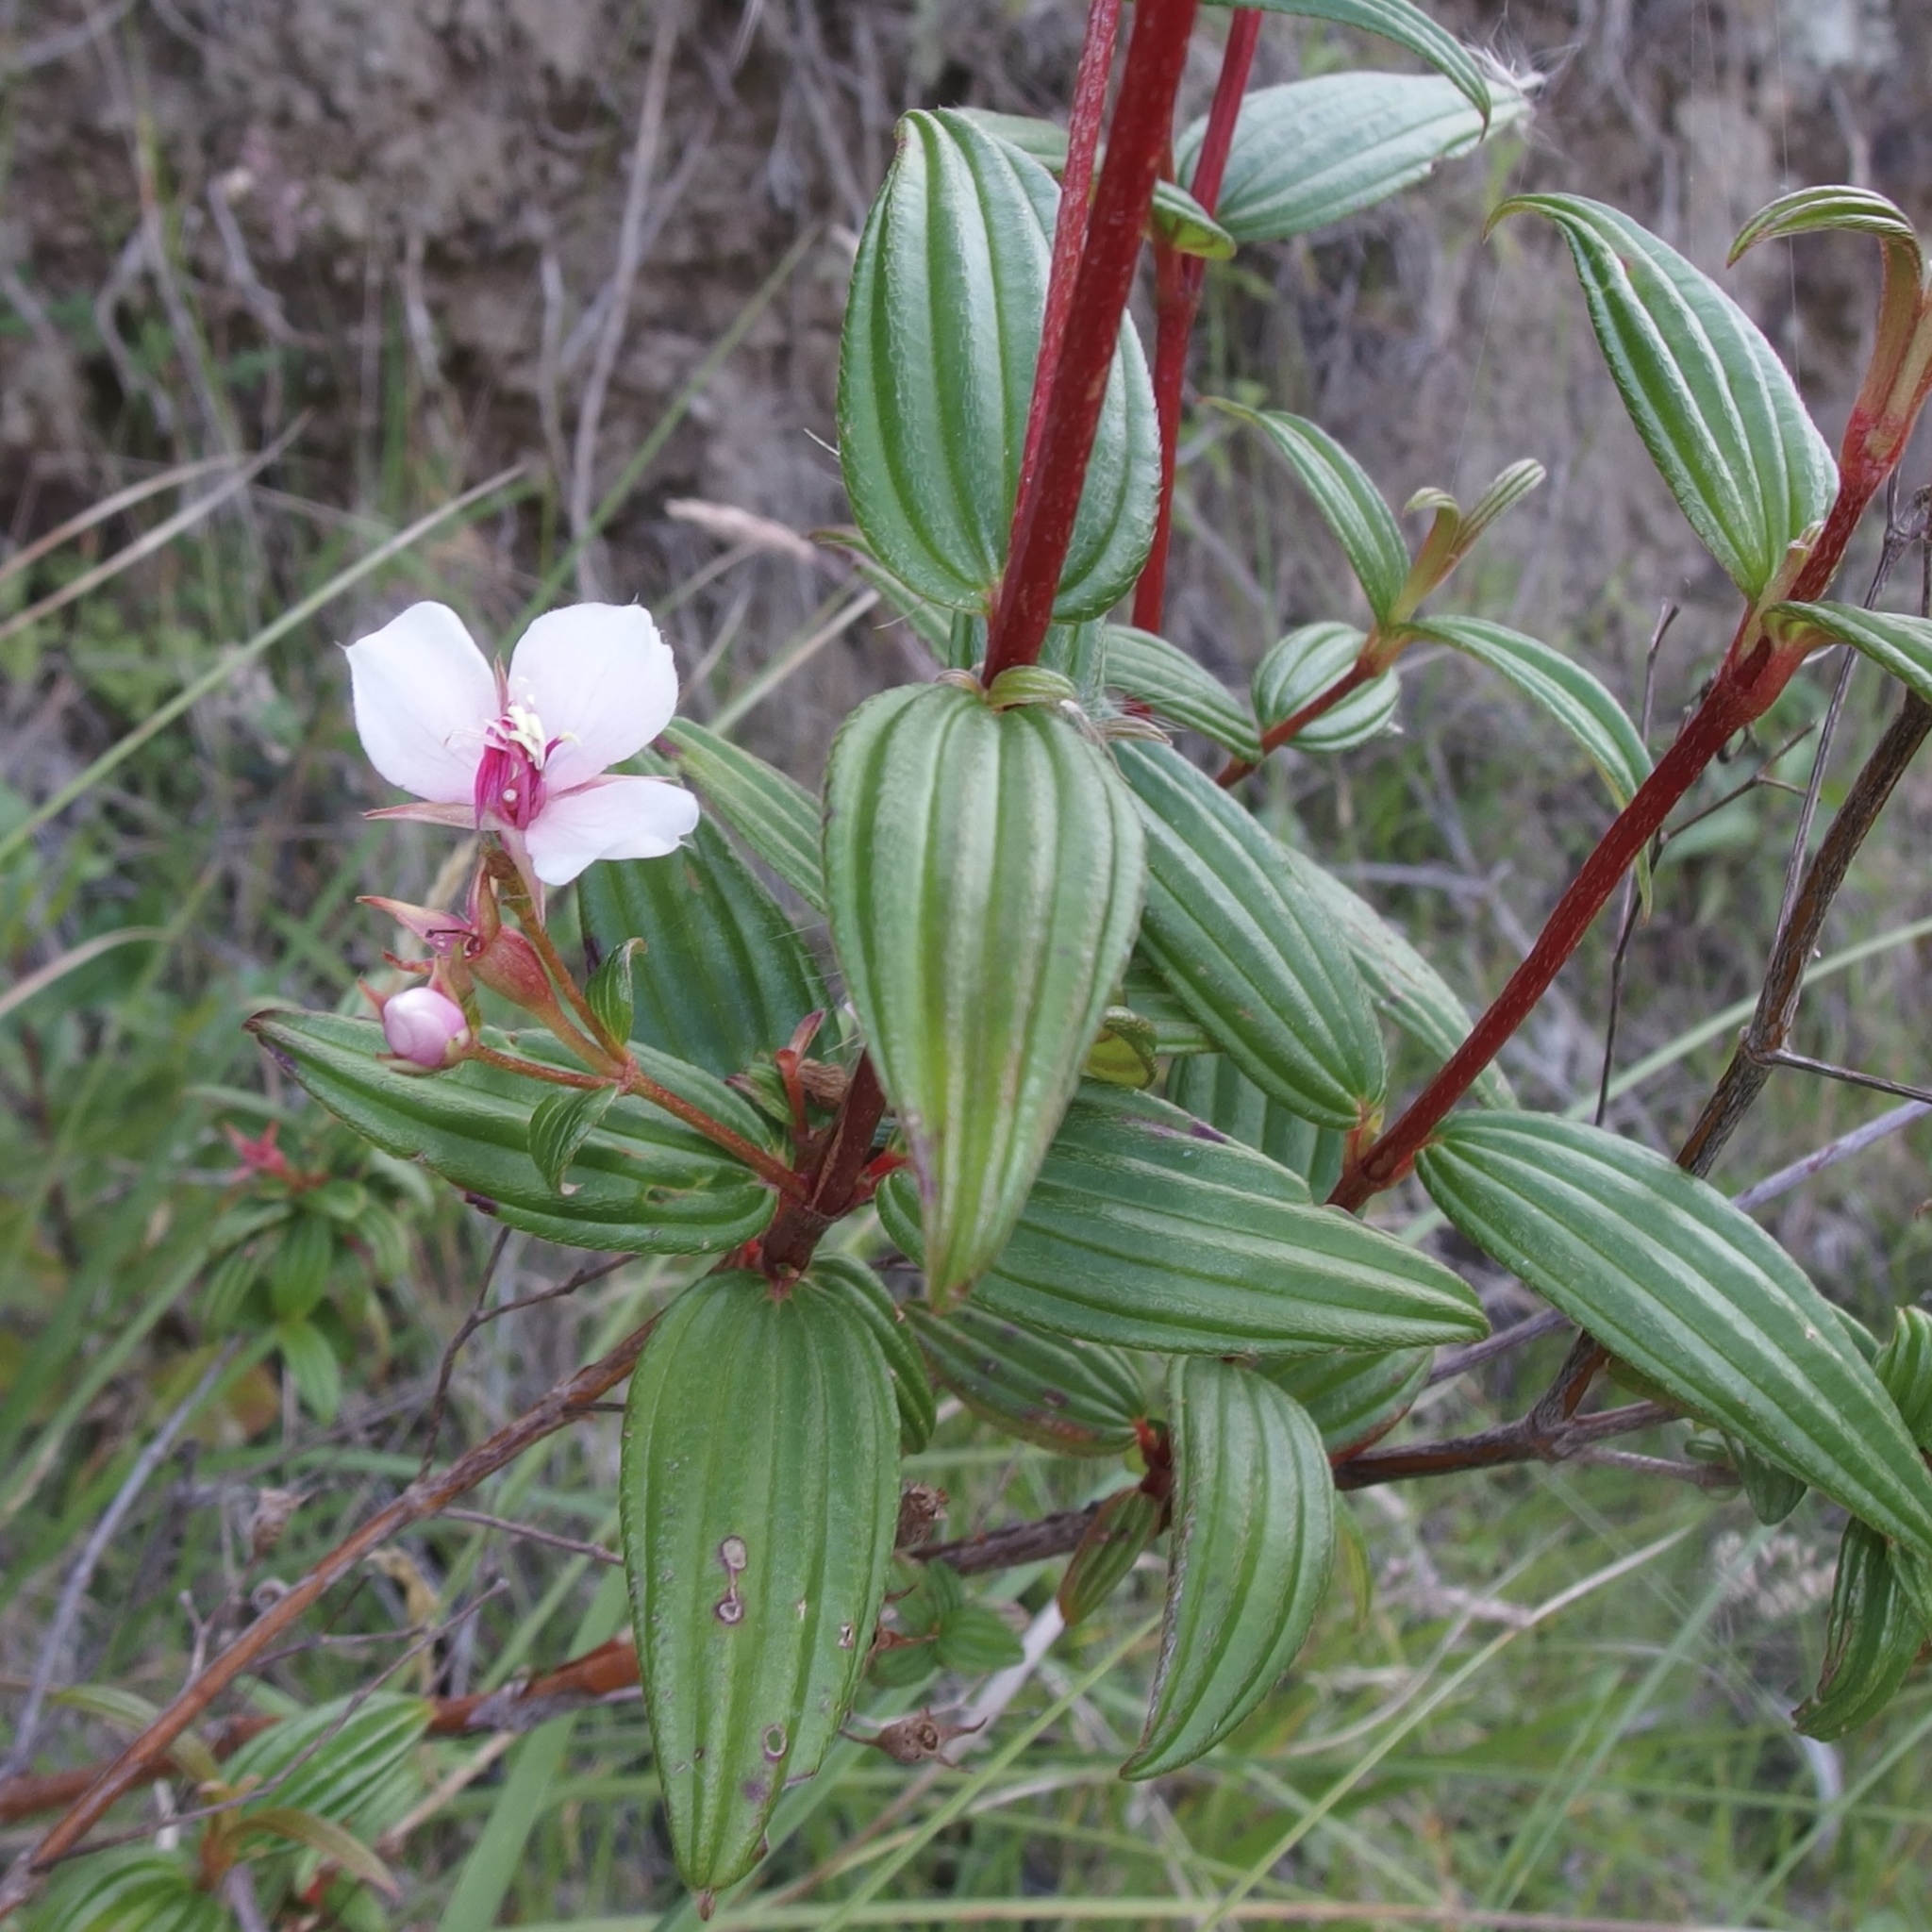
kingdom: Plantae
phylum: Tracheophyta
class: Magnoliopsida
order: Myrtales
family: Melastomataceae
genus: Monochaetum
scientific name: Monochaetum lineatum
